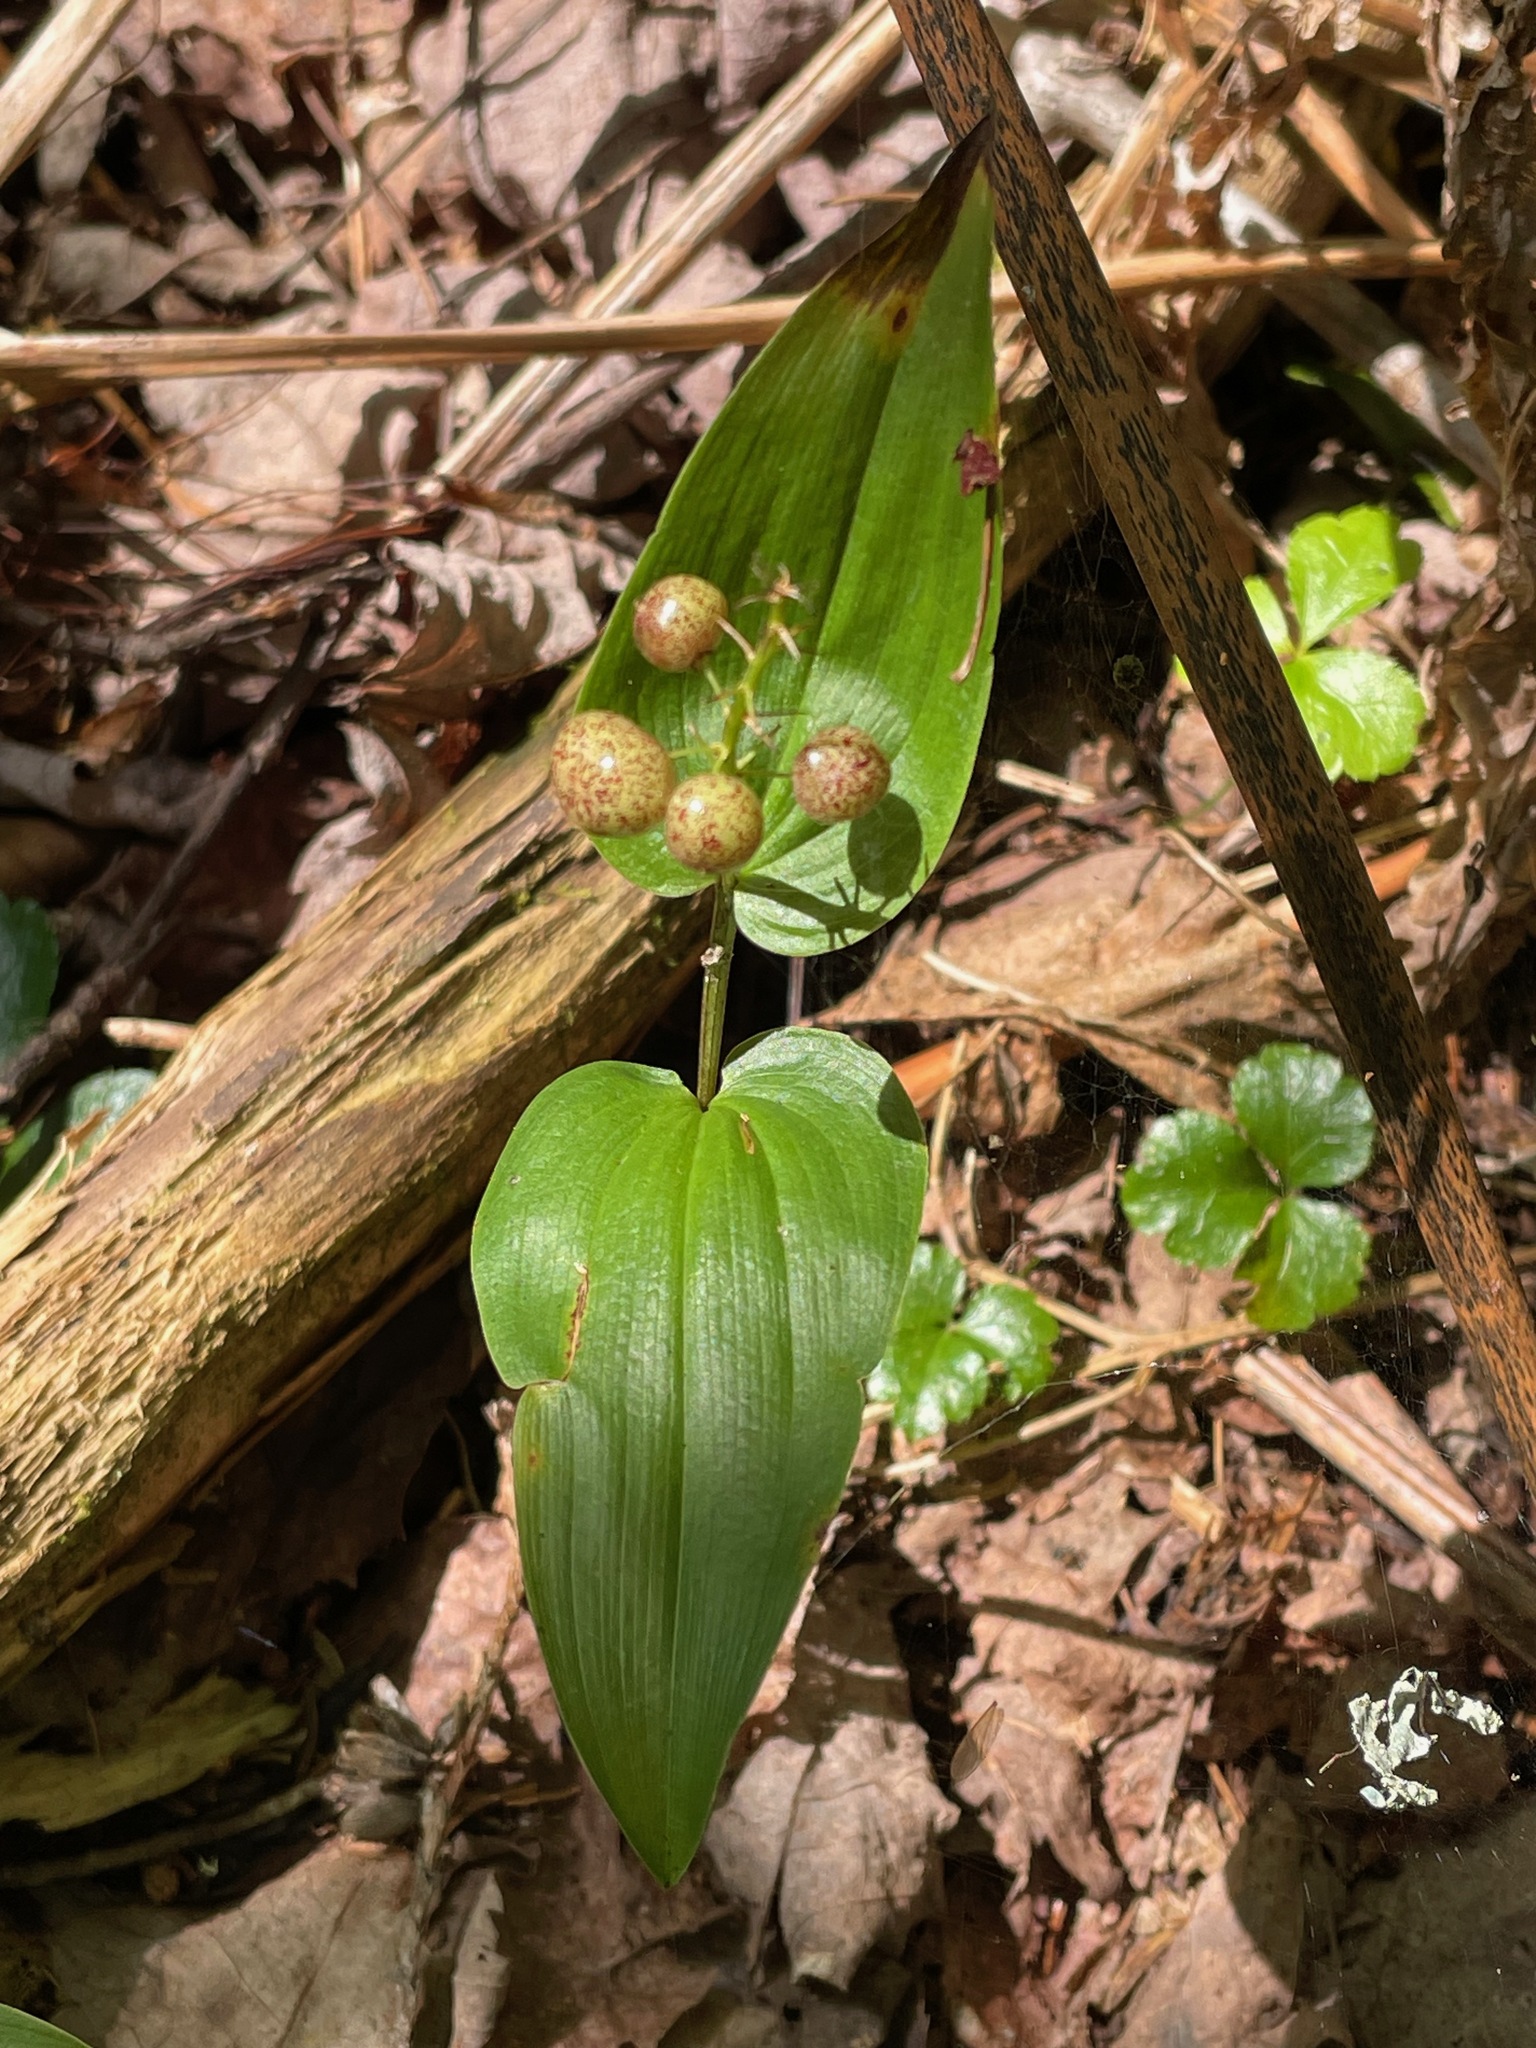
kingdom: Plantae
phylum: Tracheophyta
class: Liliopsida
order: Asparagales
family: Asparagaceae
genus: Maianthemum
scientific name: Maianthemum canadense
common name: False lily-of-the-valley
